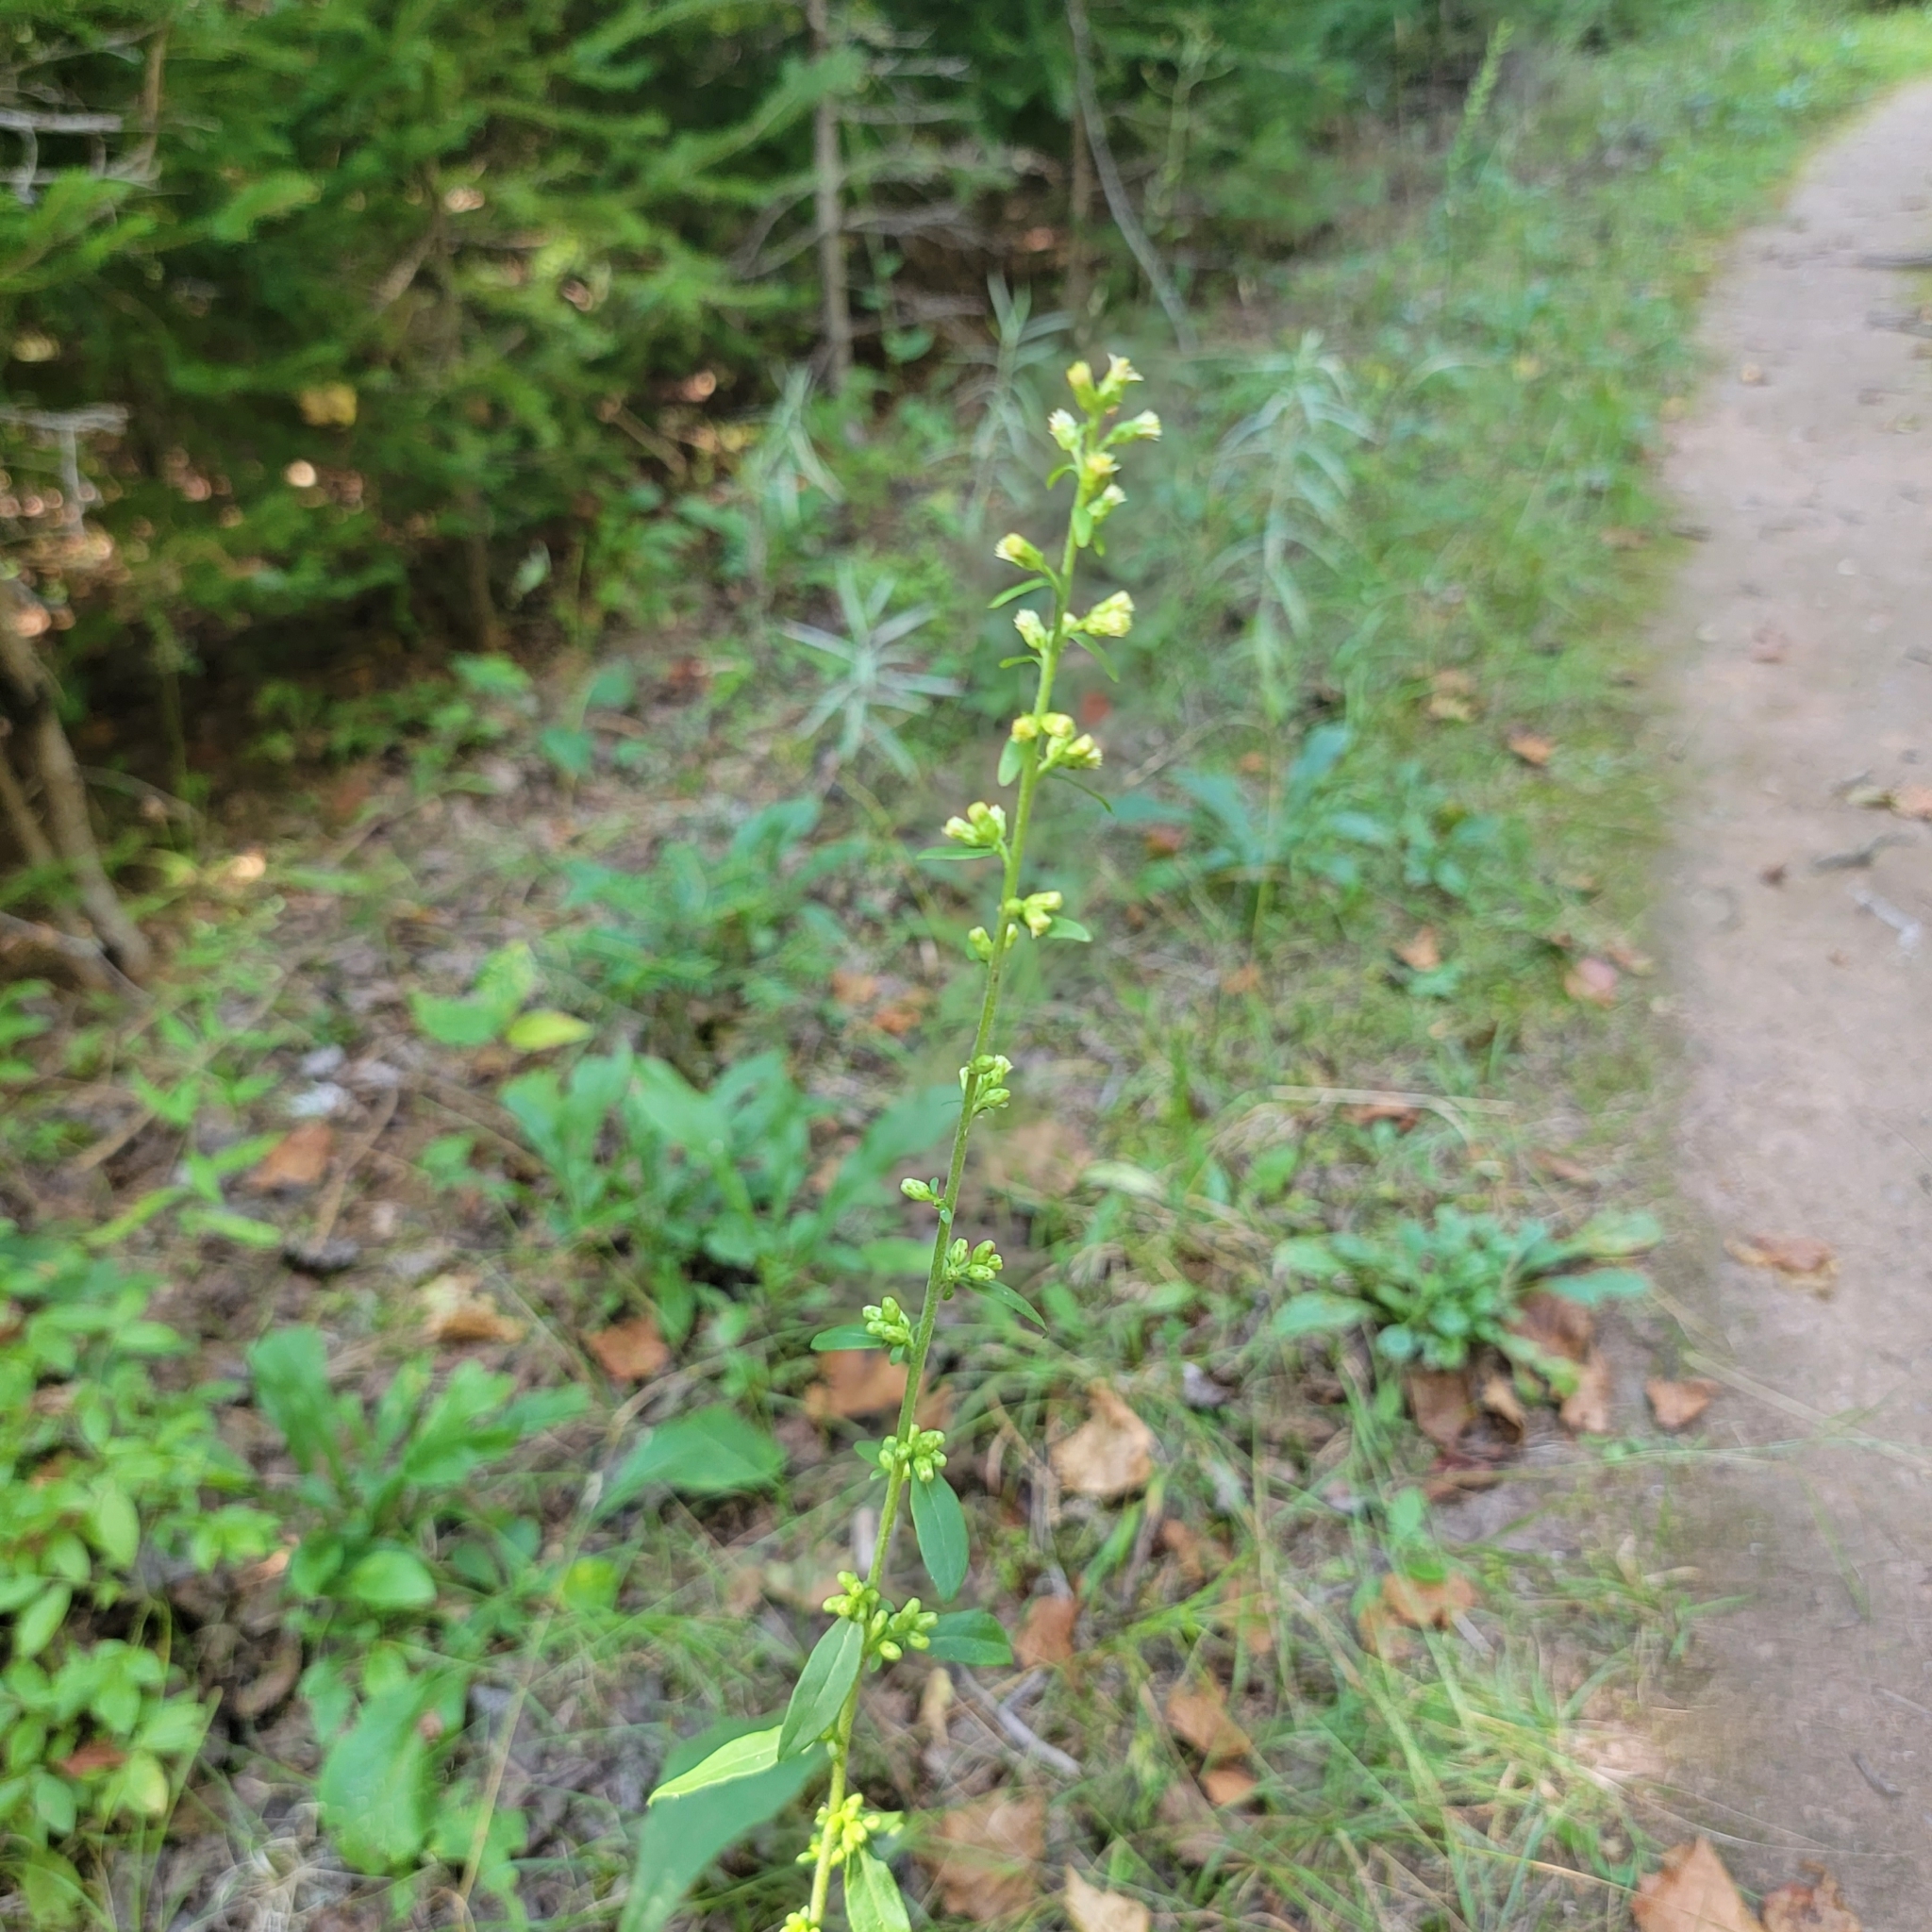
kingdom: Plantae
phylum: Tracheophyta
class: Magnoliopsida
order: Asterales
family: Asteraceae
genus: Solidago
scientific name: Solidago bicolor
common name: Silverrod
